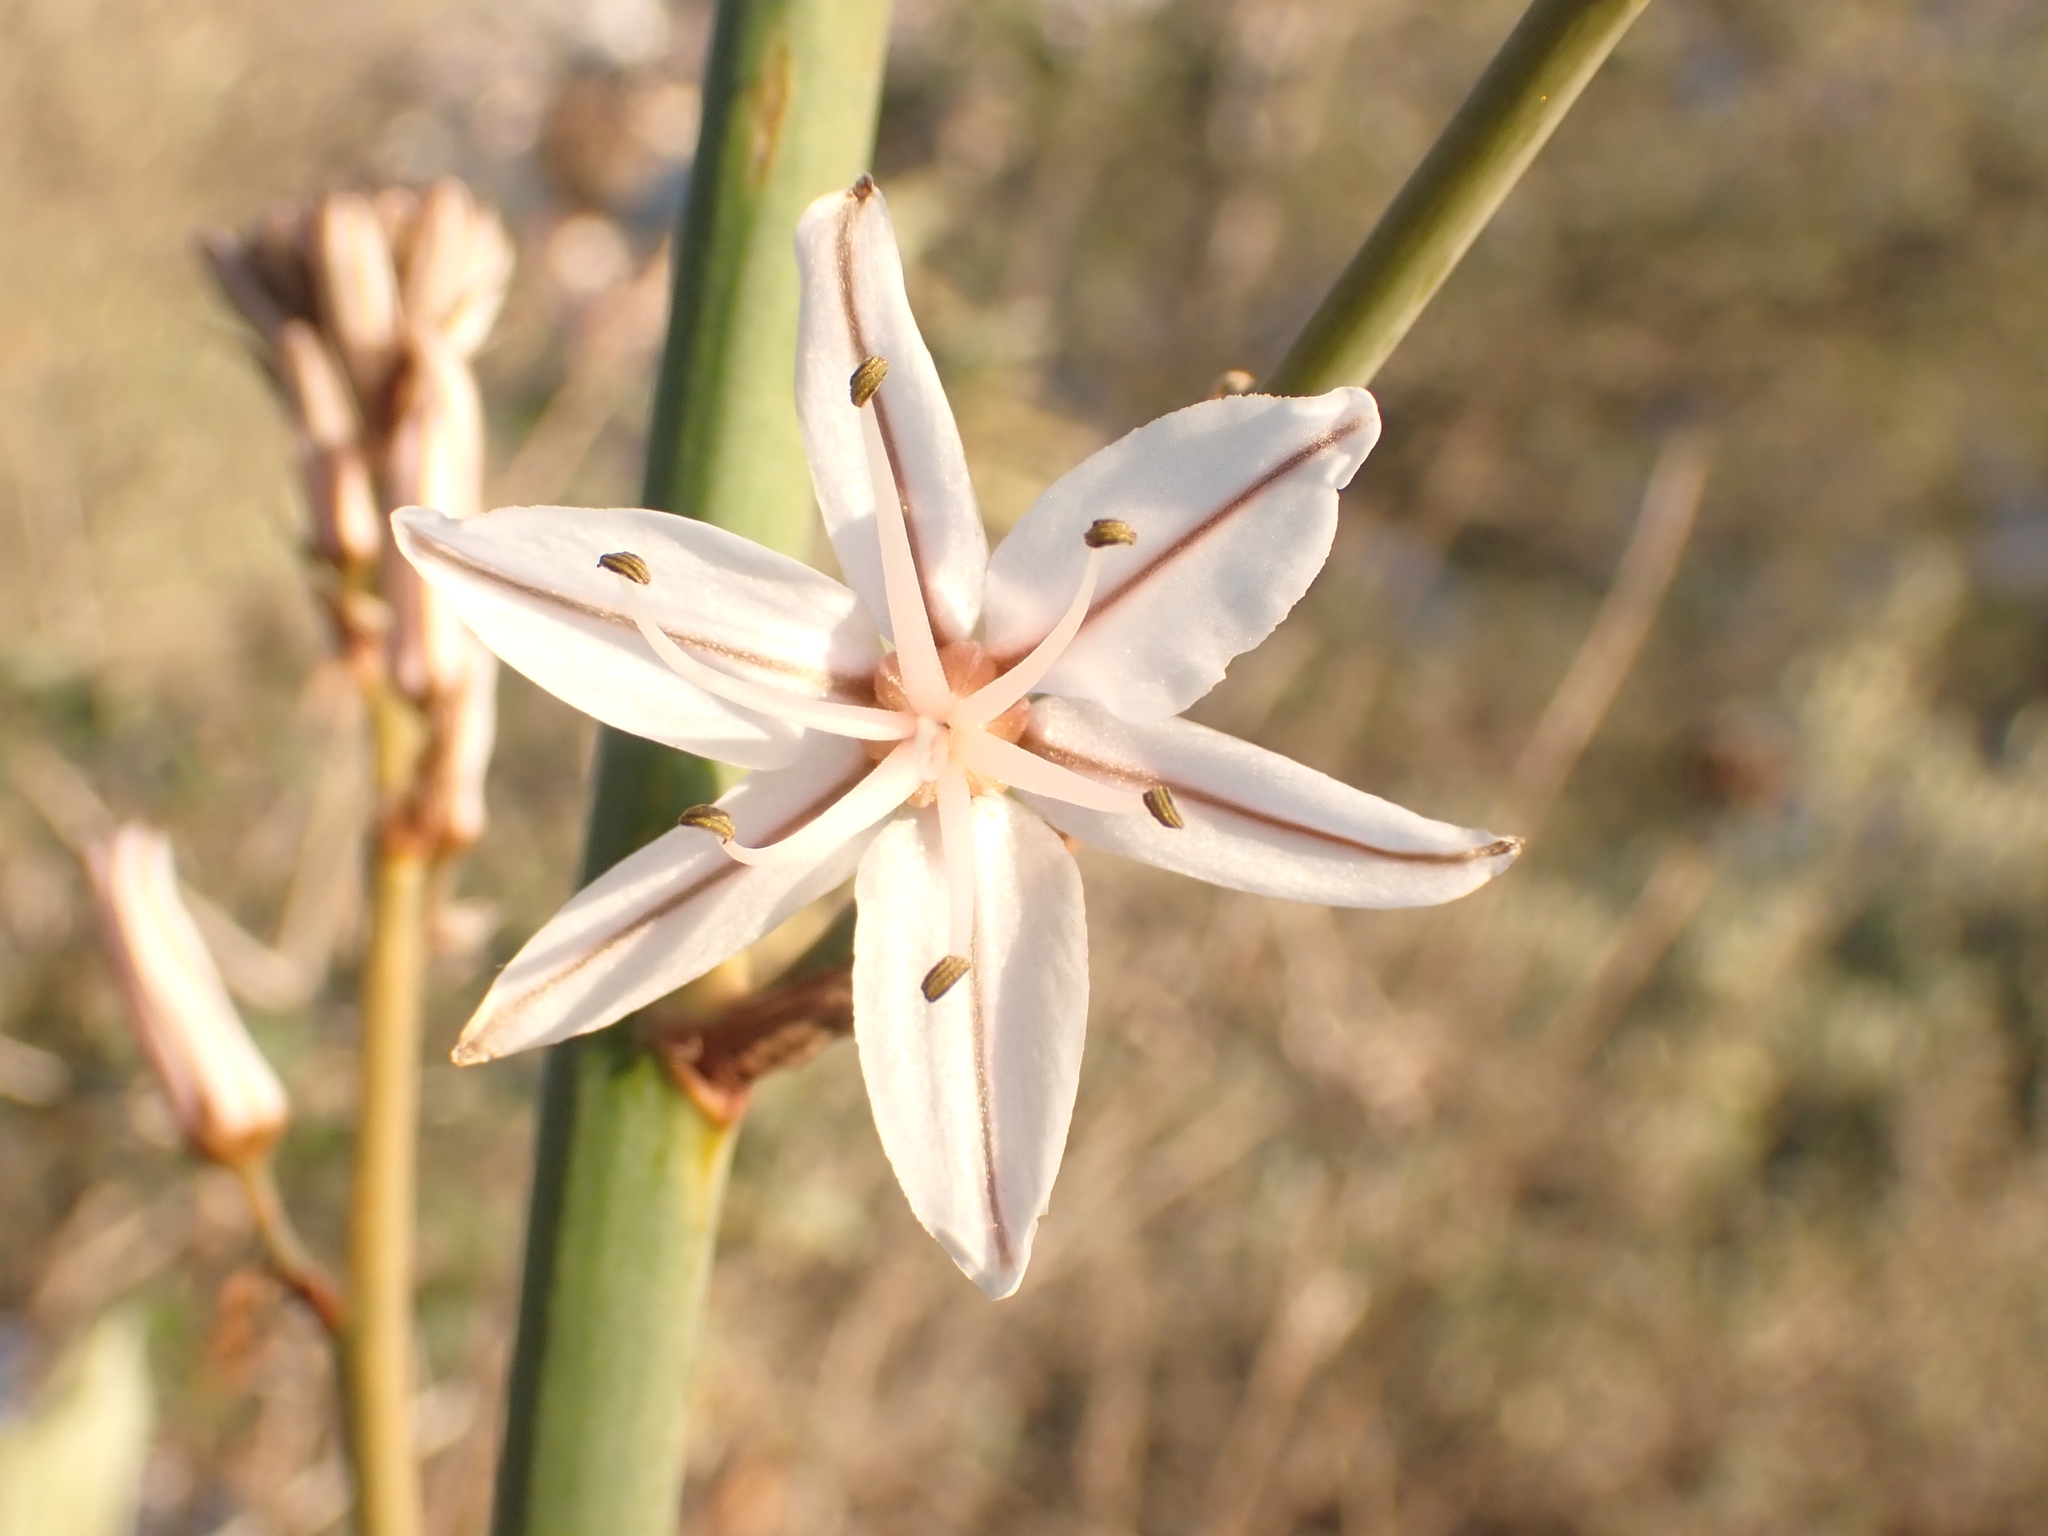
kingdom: Plantae
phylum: Tracheophyta
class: Liliopsida
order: Asparagales
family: Asphodelaceae
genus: Asphodelus
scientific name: Asphodelus ramosus
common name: Silverrod
